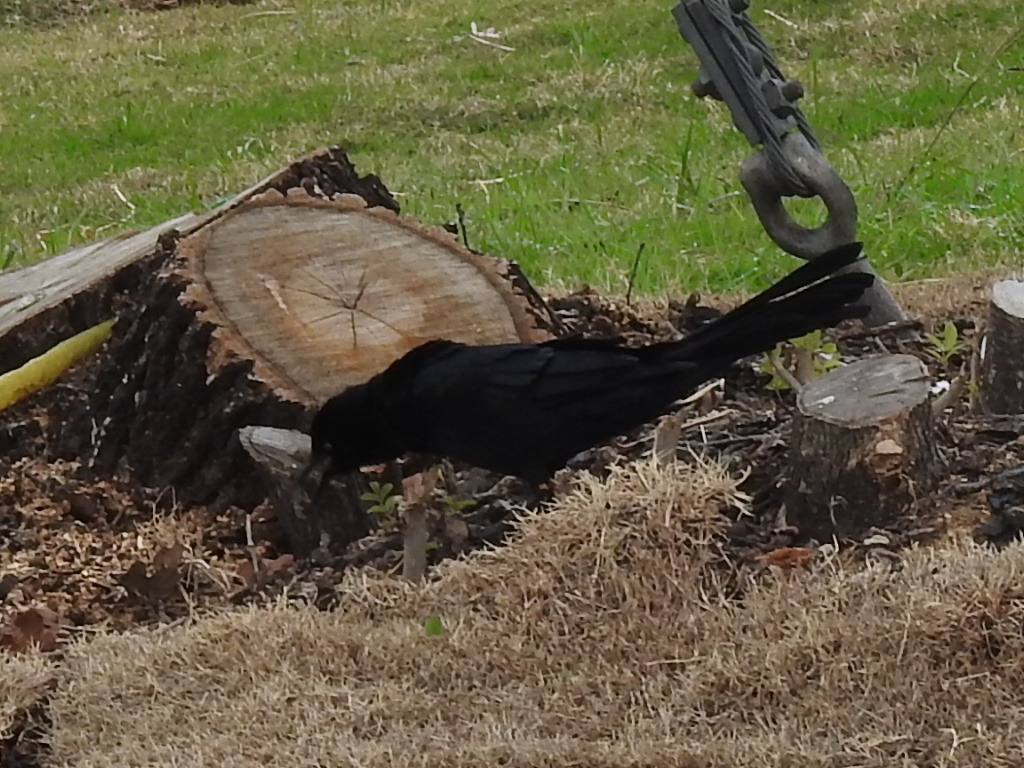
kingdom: Animalia
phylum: Chordata
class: Aves
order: Passeriformes
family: Icteridae
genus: Quiscalus
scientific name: Quiscalus mexicanus
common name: Great-tailed grackle
